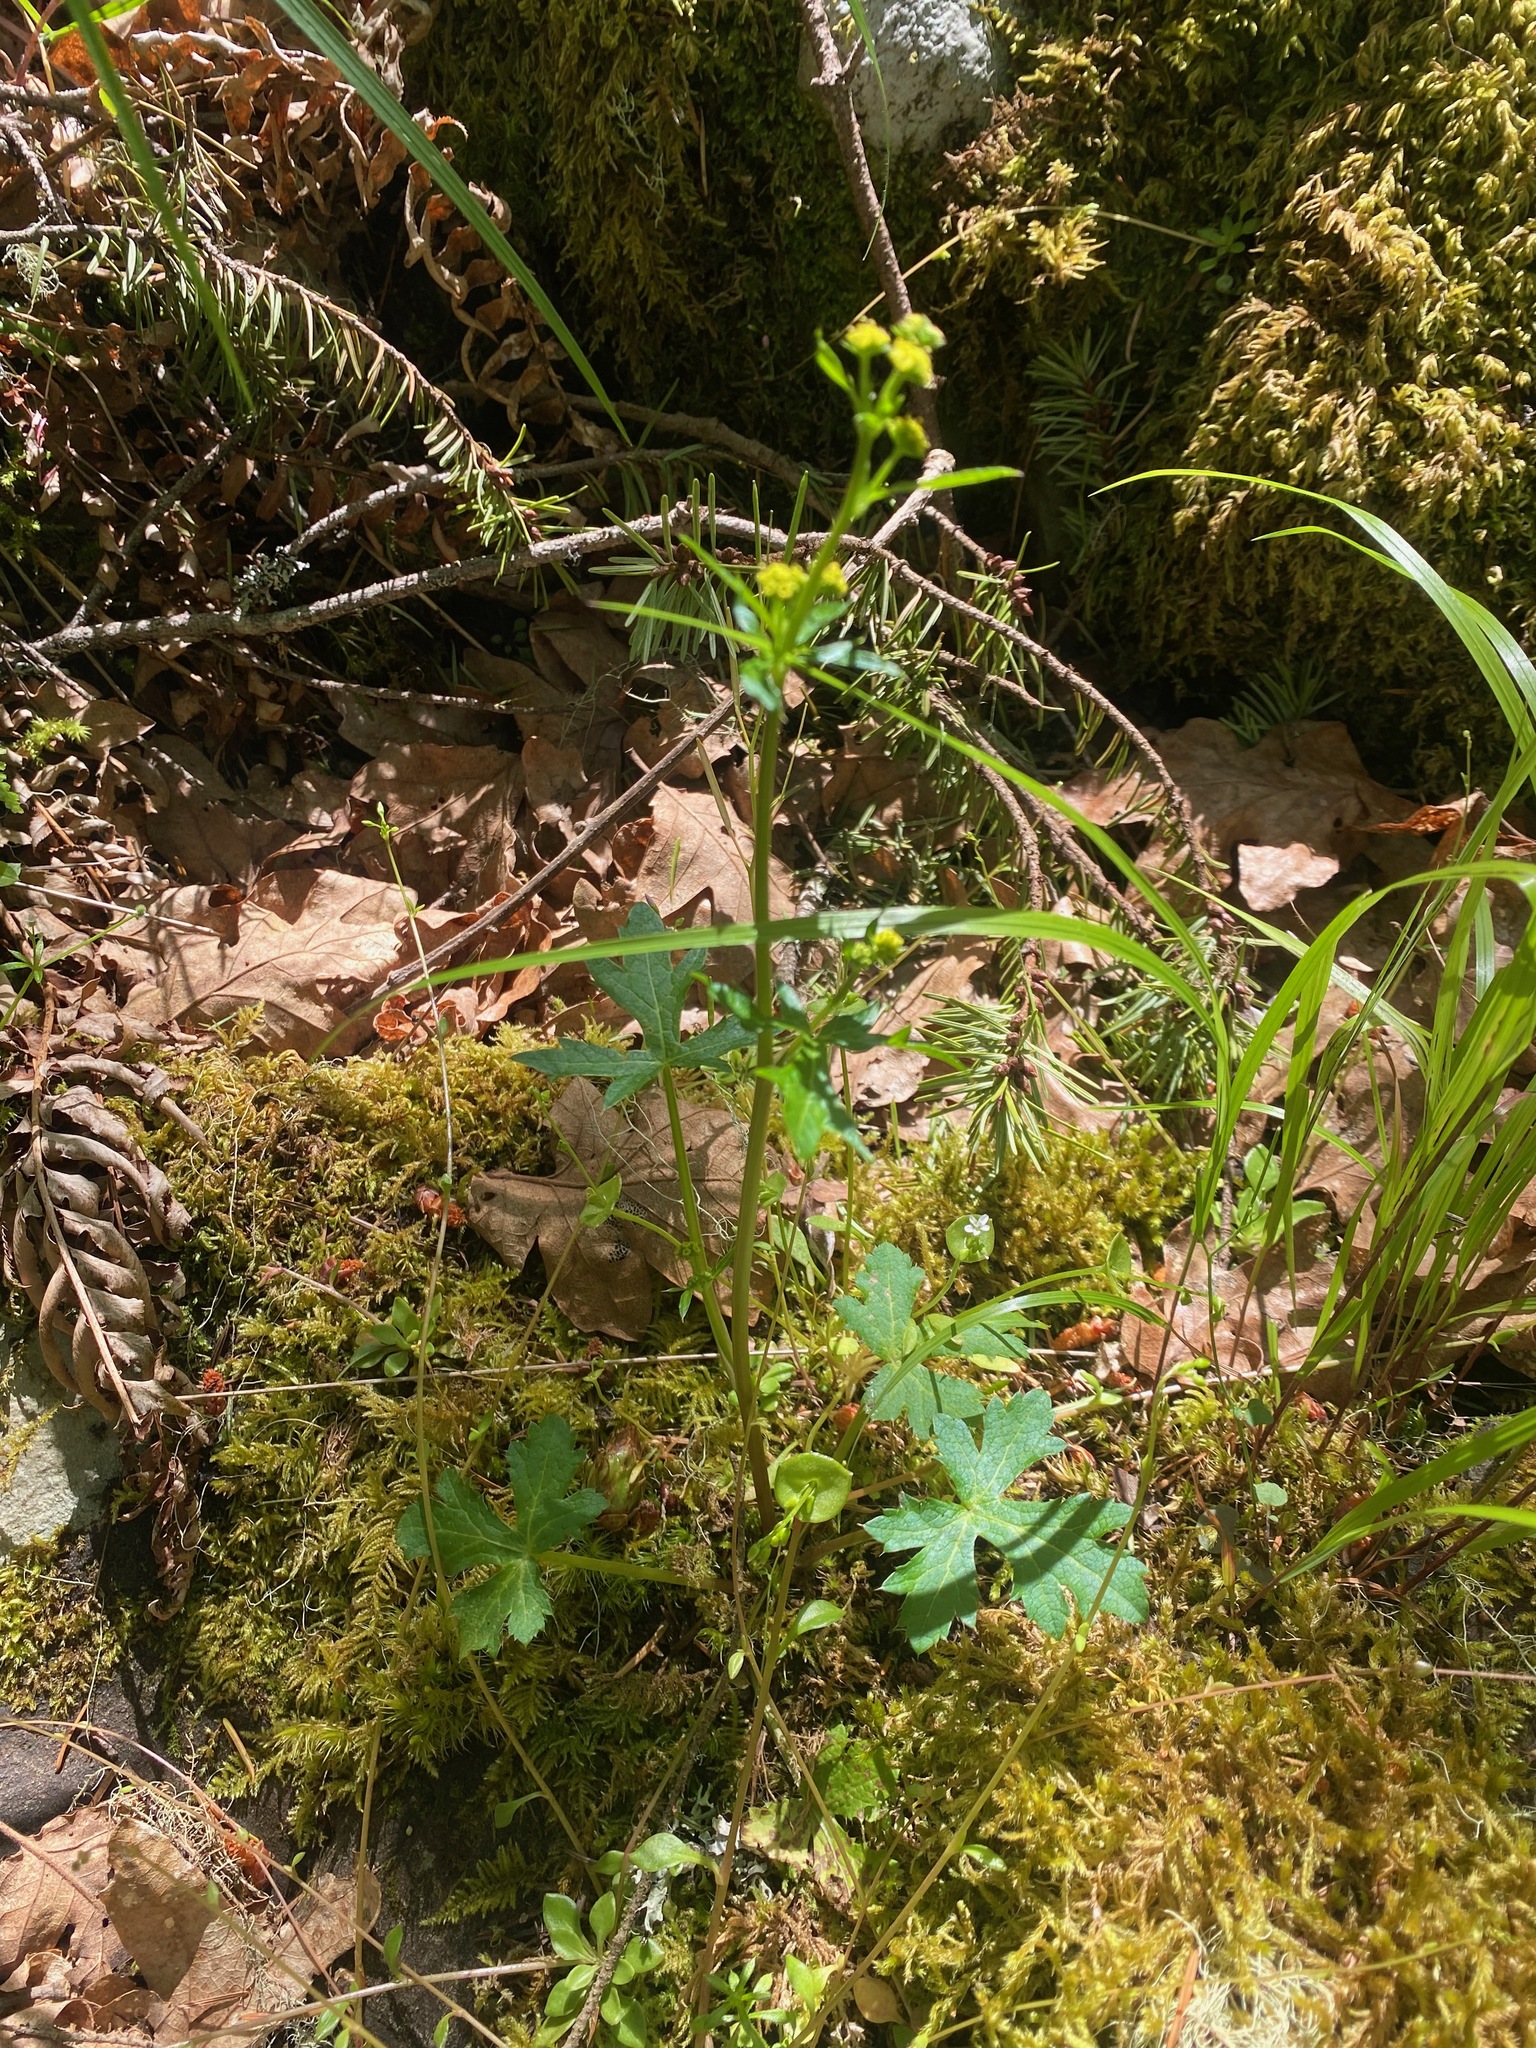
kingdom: Plantae
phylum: Tracheophyta
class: Magnoliopsida
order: Apiales
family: Apiaceae
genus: Sanicula
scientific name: Sanicula crassicaulis
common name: Western snakeroot
